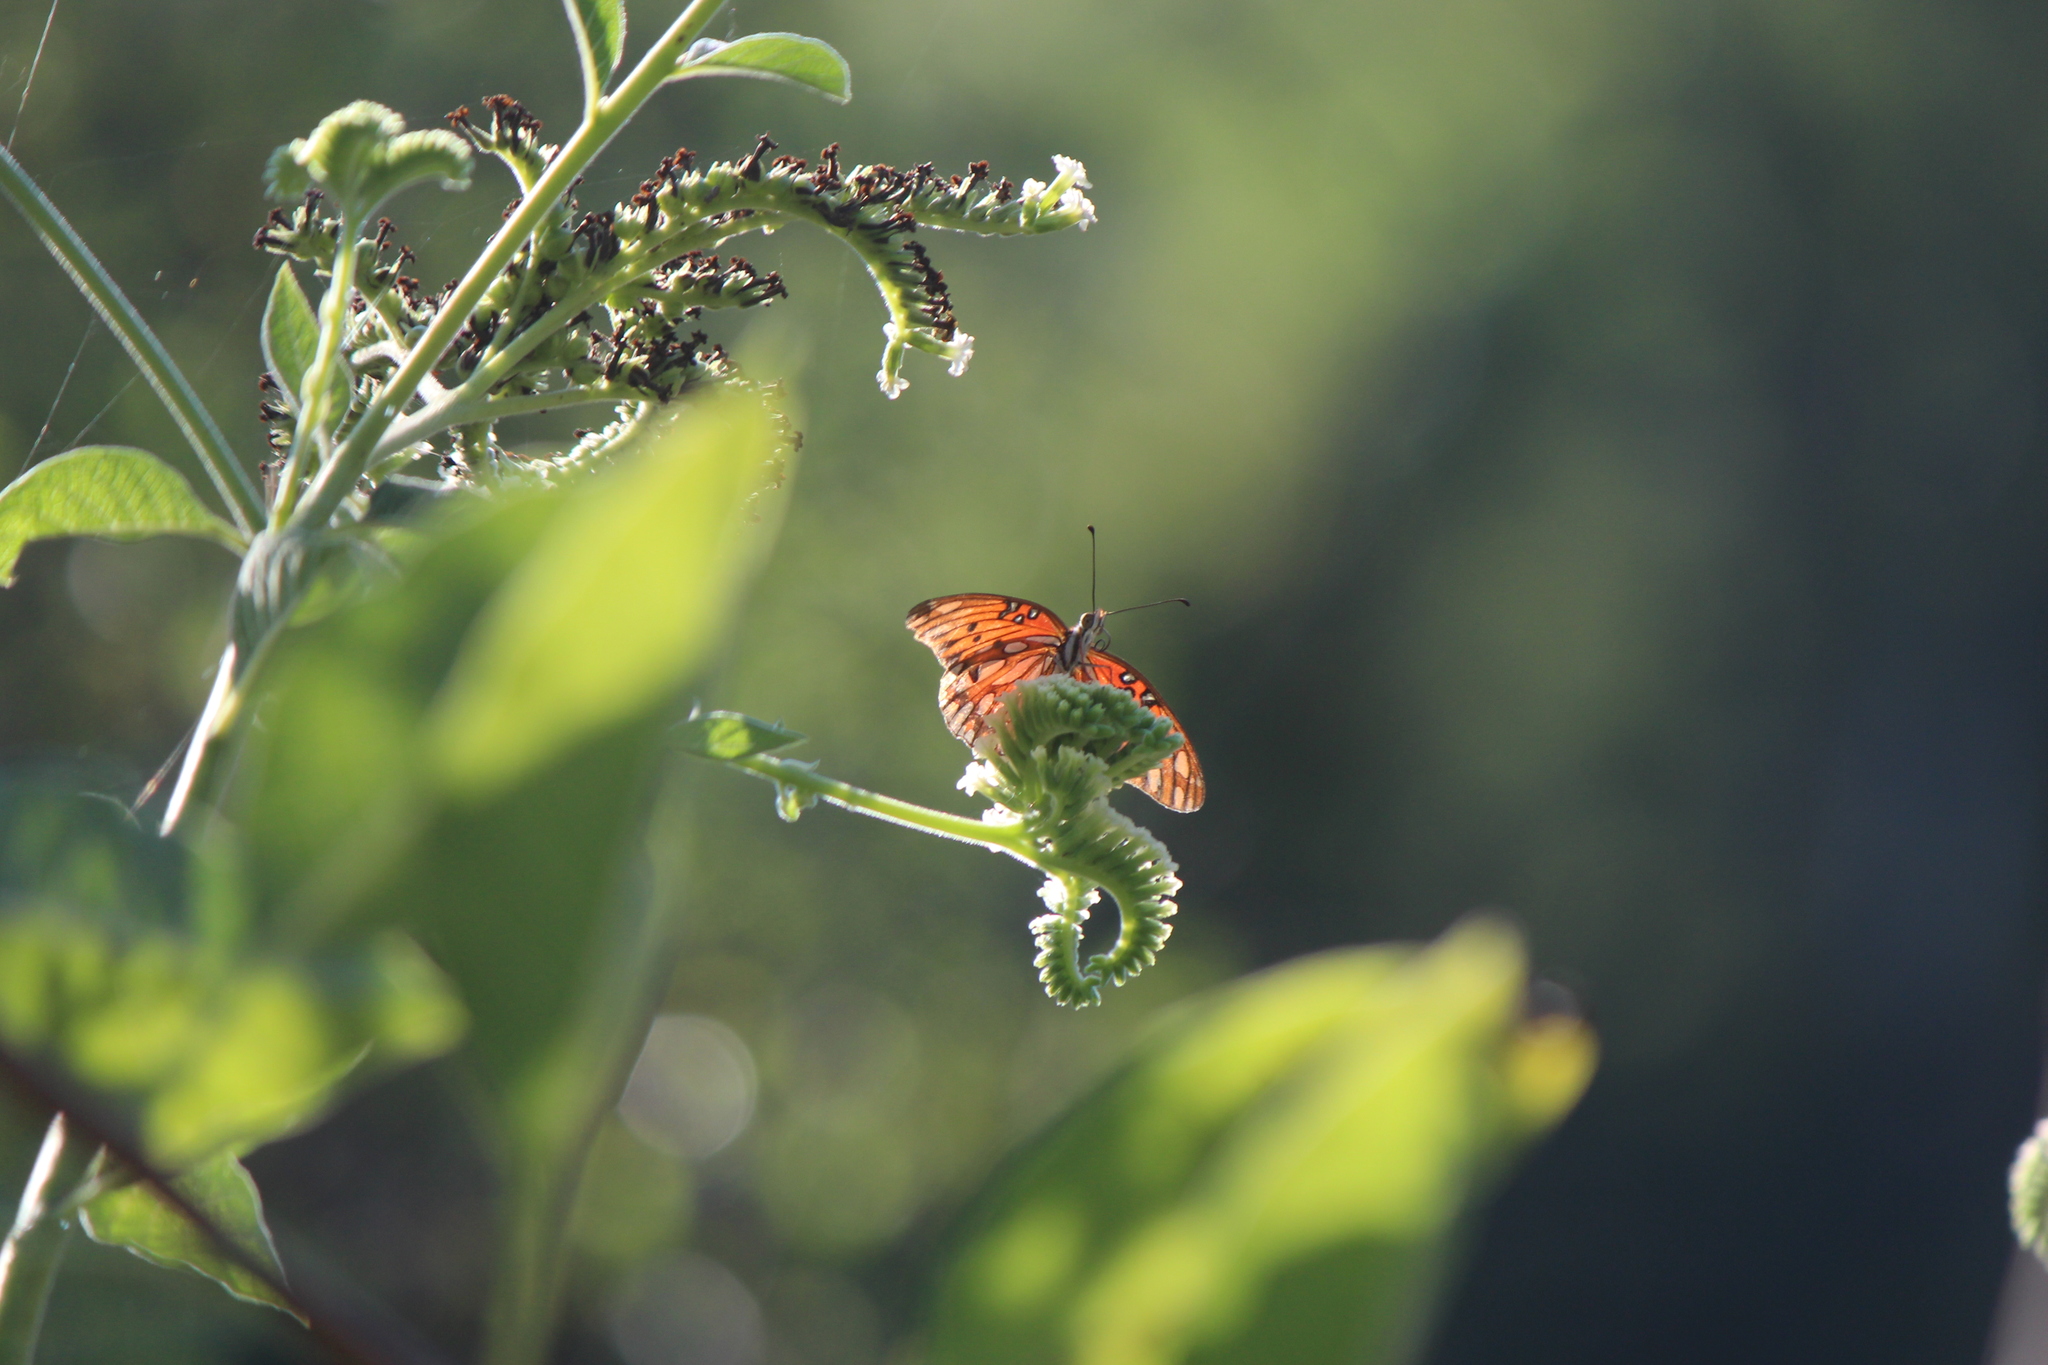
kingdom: Animalia
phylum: Arthropoda
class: Insecta
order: Lepidoptera
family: Nymphalidae
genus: Dione
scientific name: Dione vanillae
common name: Gulf fritillary
